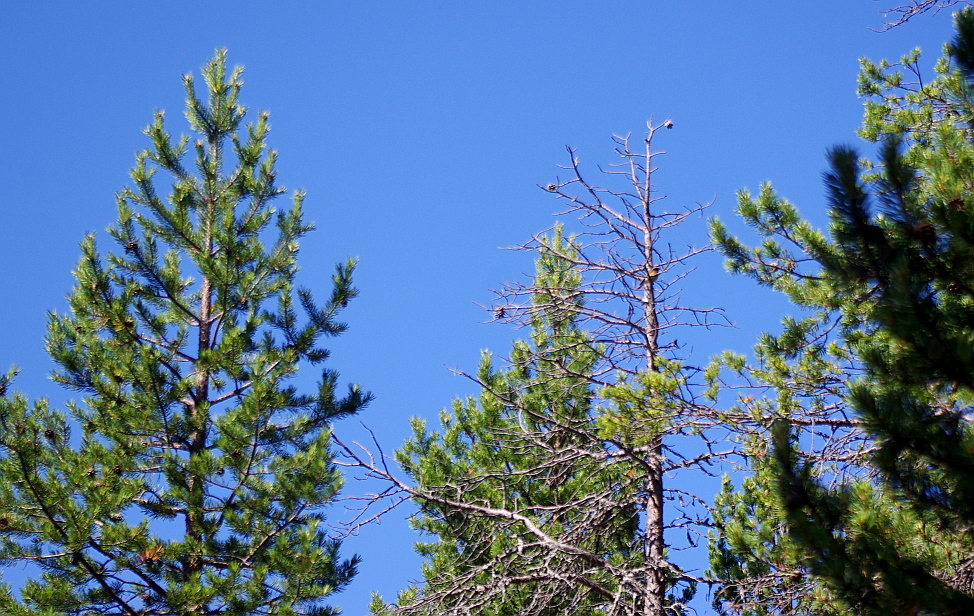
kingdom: Plantae
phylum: Tracheophyta
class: Pinopsida
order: Pinales
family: Pinaceae
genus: Pinus
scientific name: Pinus sylvestris
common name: Scots pine
